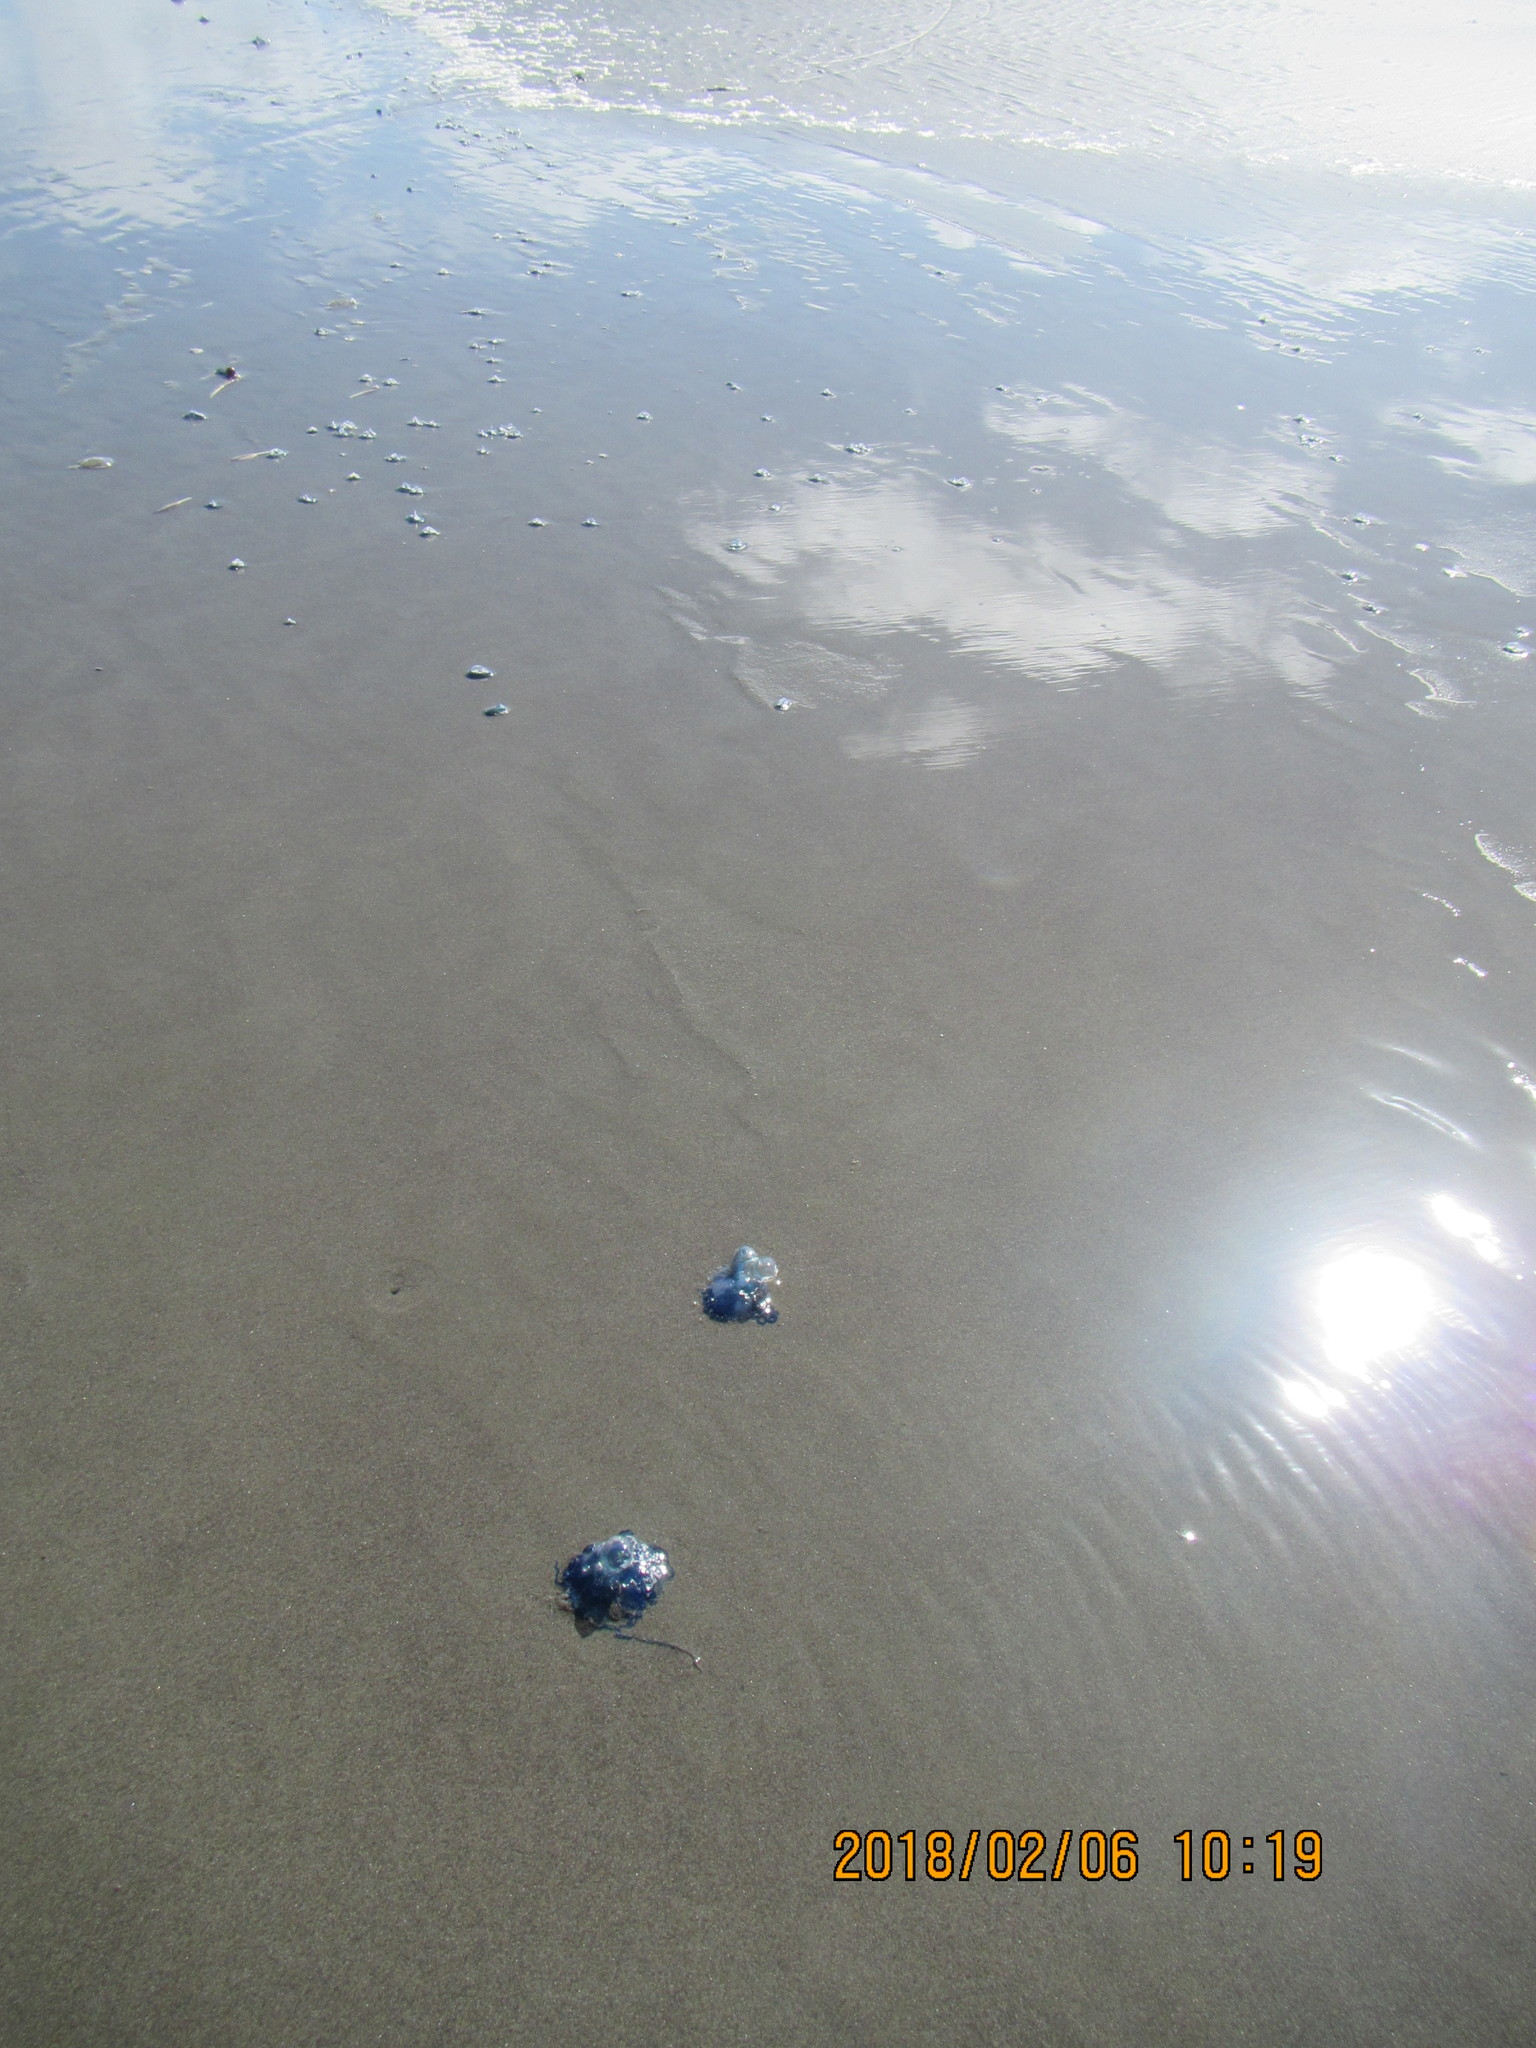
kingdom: Animalia
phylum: Cnidaria
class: Hydrozoa
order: Siphonophorae
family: Physaliidae
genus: Physalia
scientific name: Physalia physalis
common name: Portuguese man-of-war
